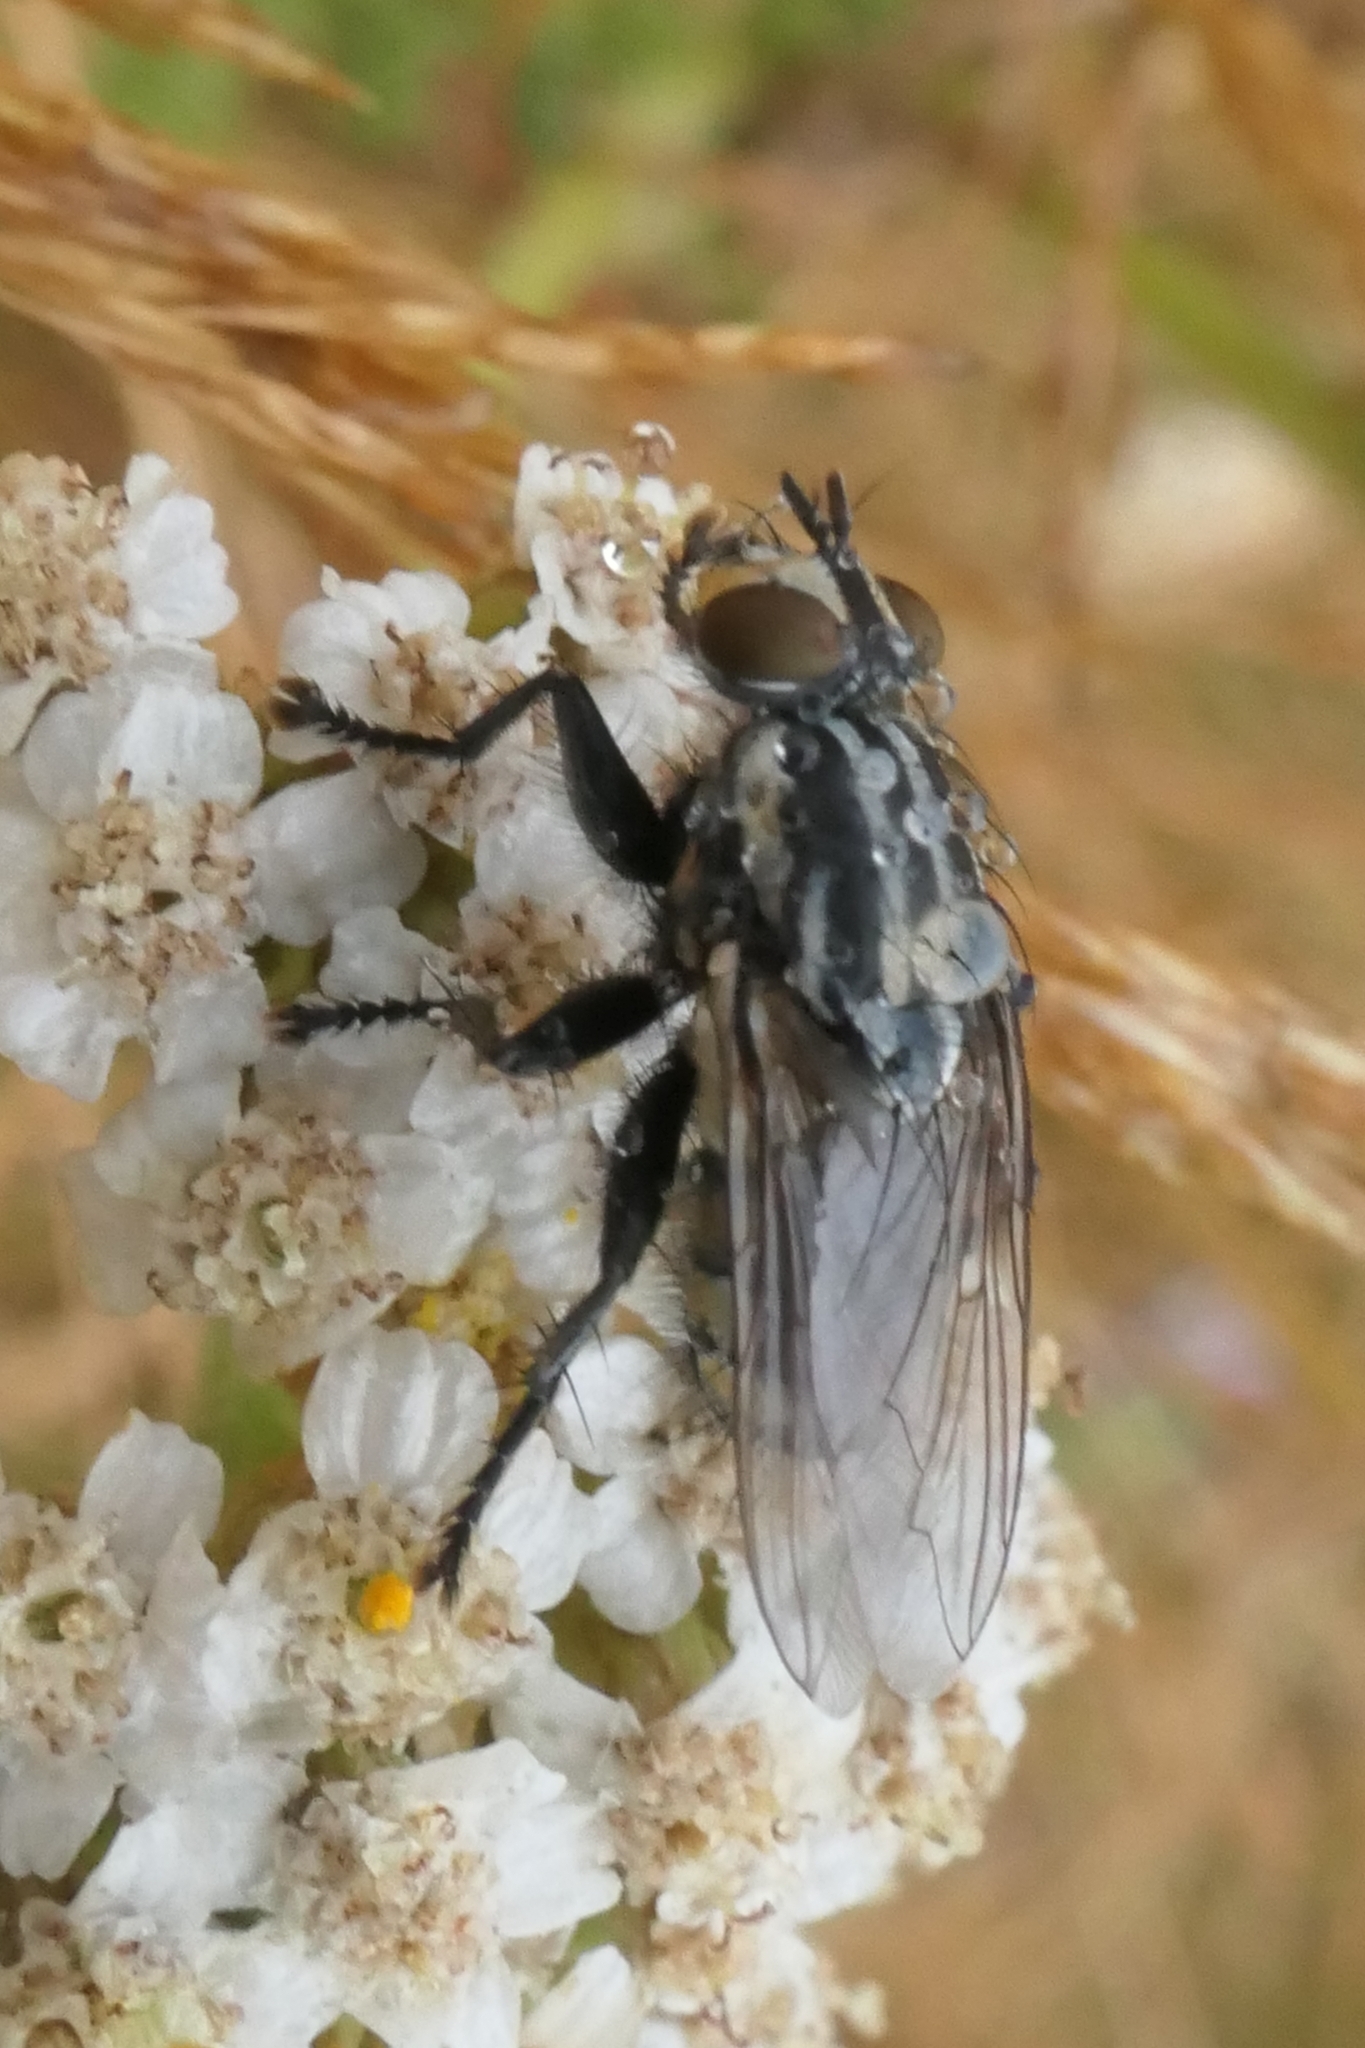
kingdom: Animalia
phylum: Arthropoda
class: Insecta
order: Diptera
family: Sarcophagidae
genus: Oxysarcodexia
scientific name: Oxysarcodexia varia
